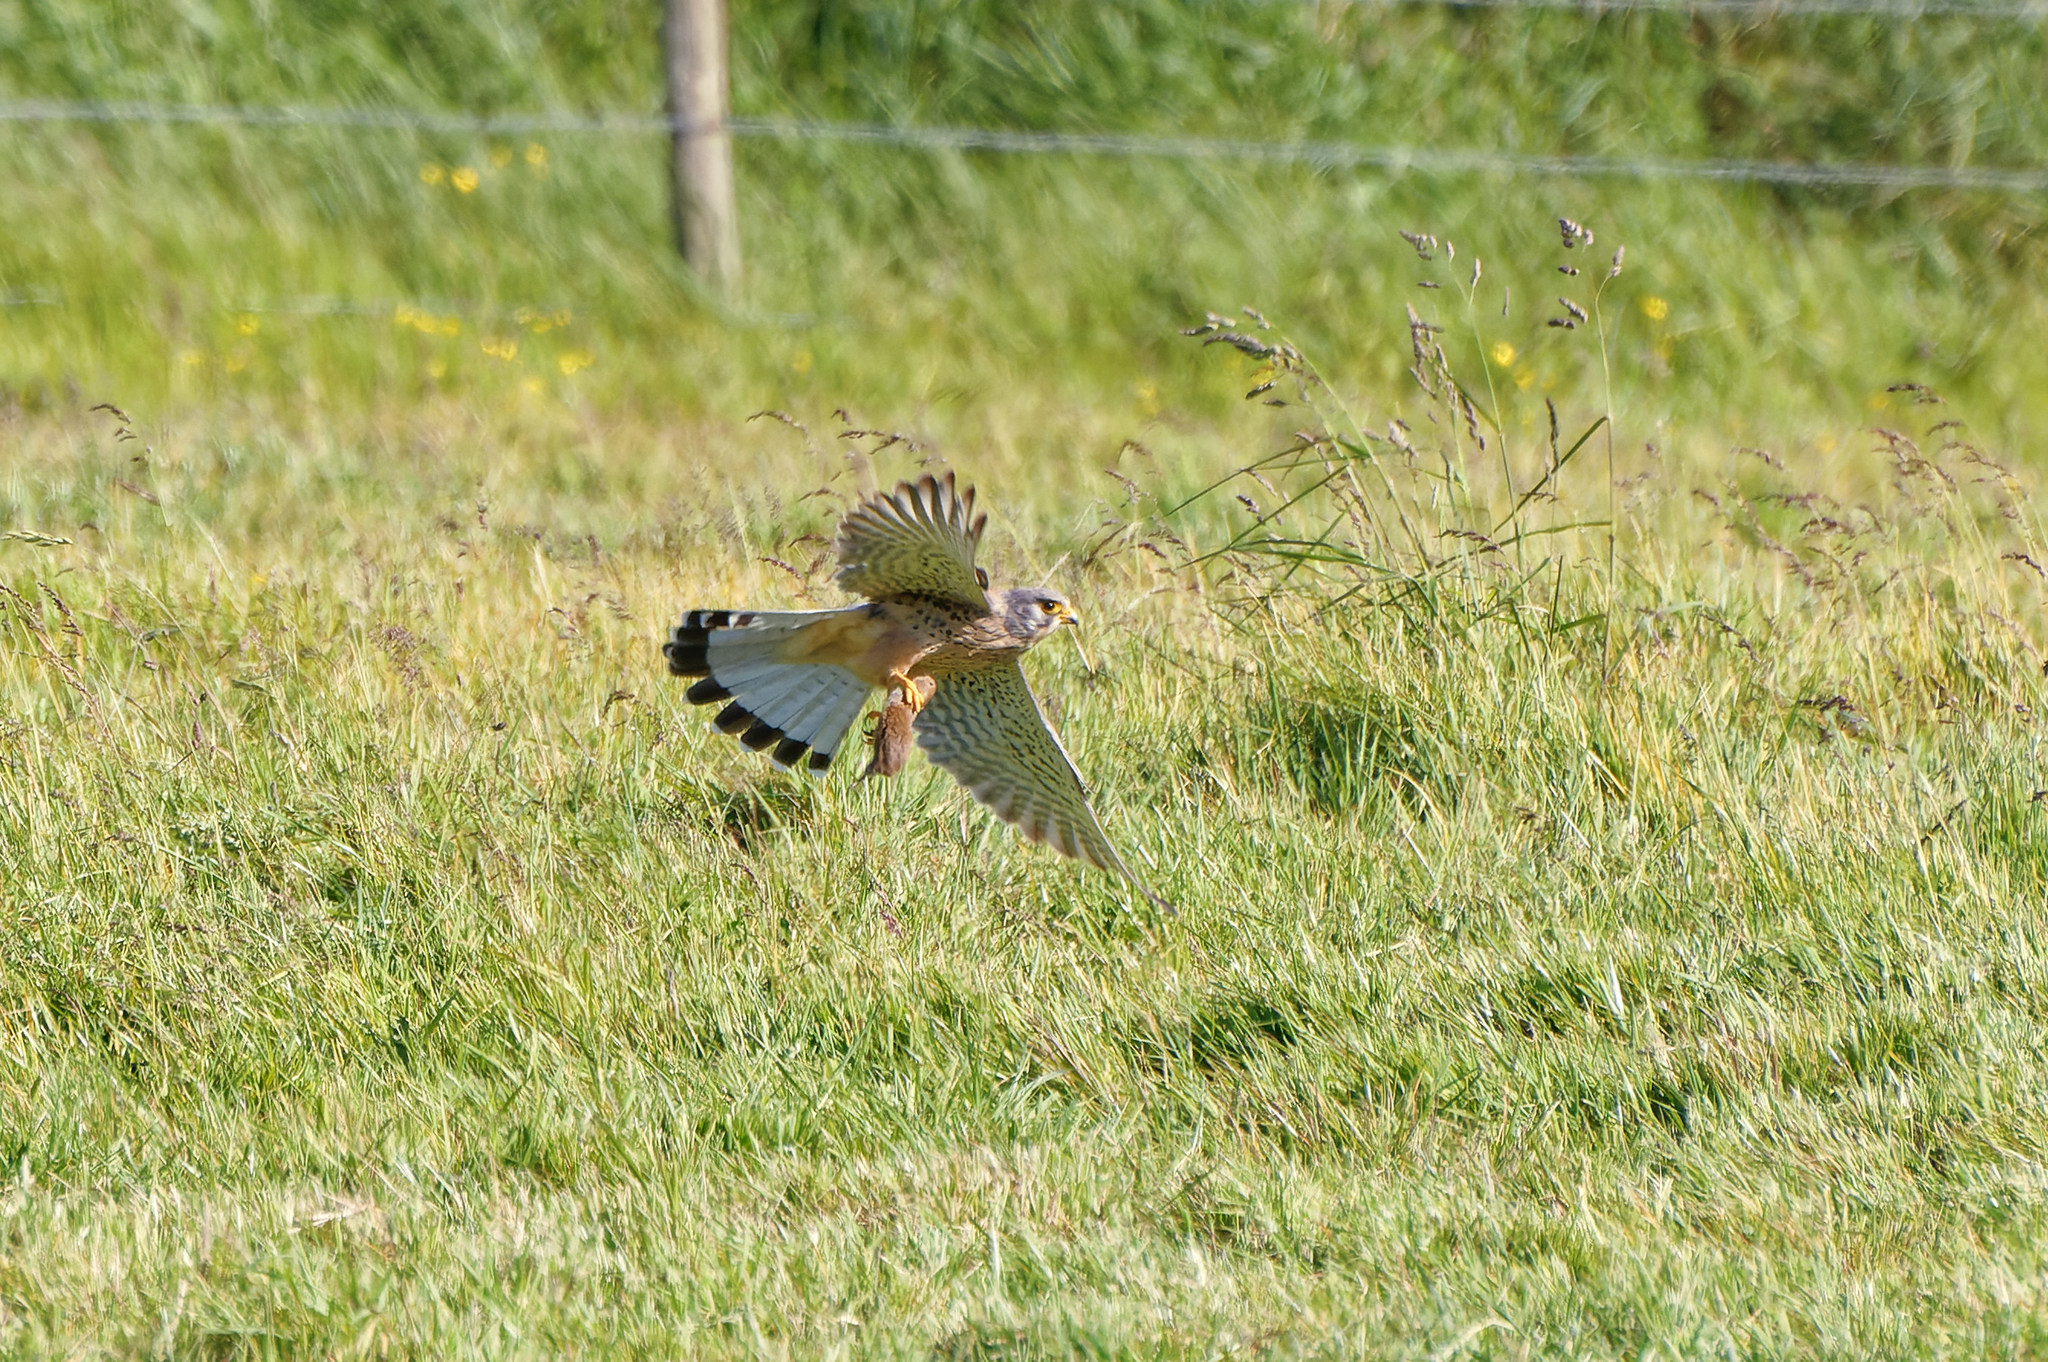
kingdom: Animalia
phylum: Chordata
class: Aves
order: Falconiformes
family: Falconidae
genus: Falco
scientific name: Falco tinnunculus
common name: Common kestrel
